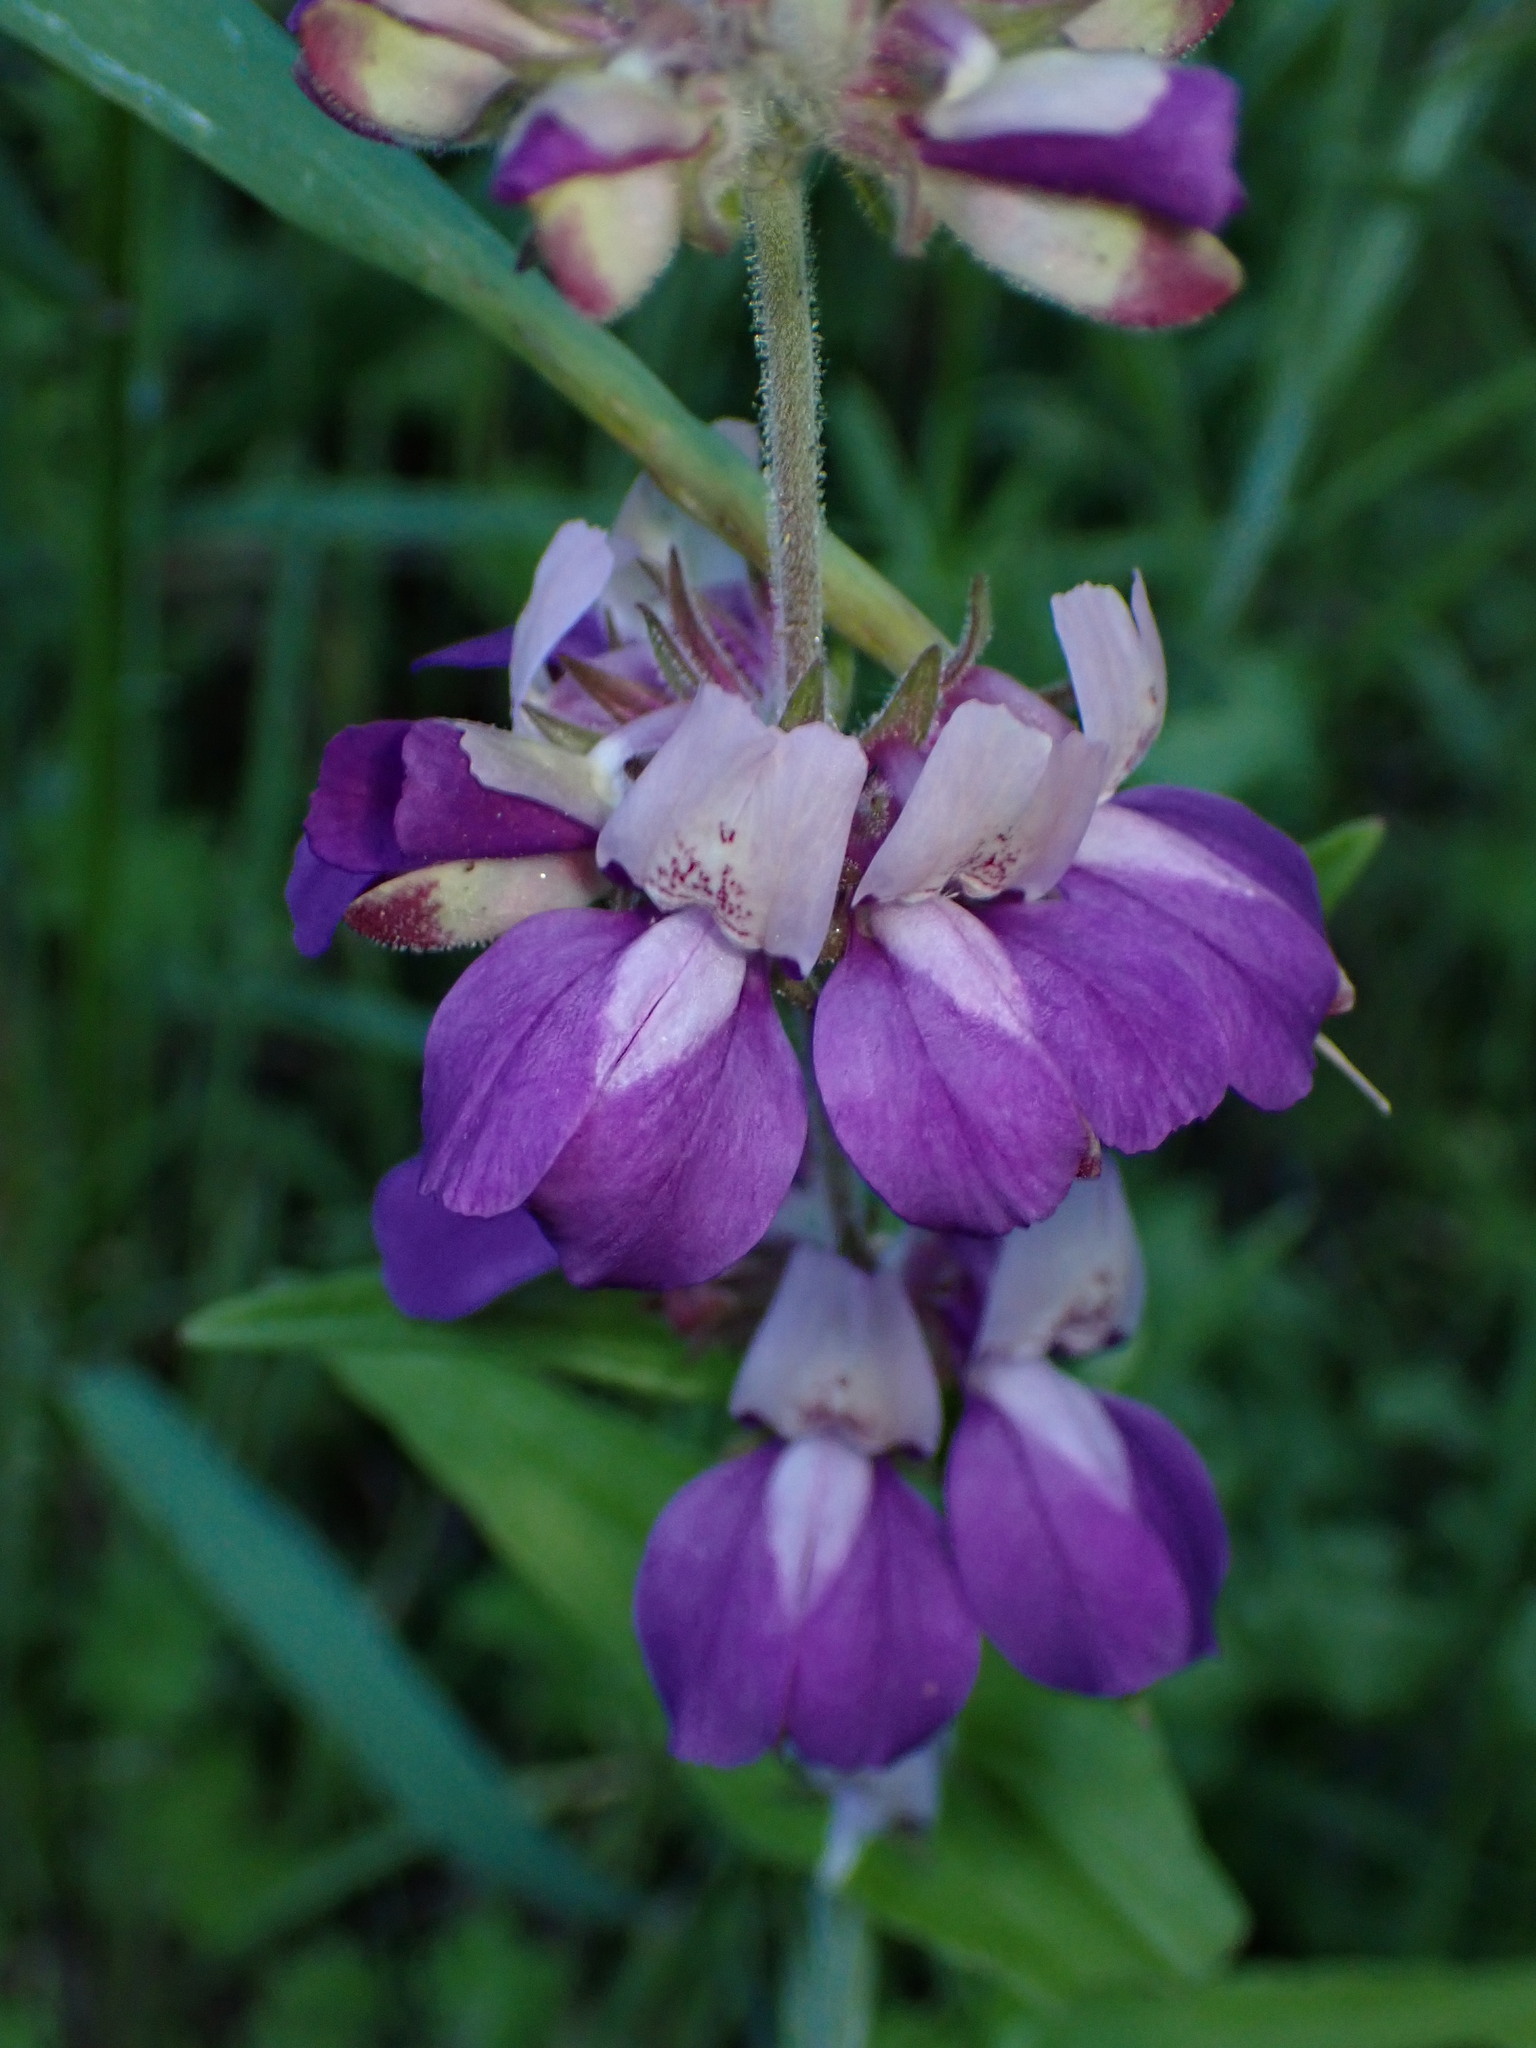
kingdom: Plantae
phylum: Tracheophyta
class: Magnoliopsida
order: Lamiales
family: Plantaginaceae
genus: Collinsia
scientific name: Collinsia heterophylla
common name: Chinese-houses
